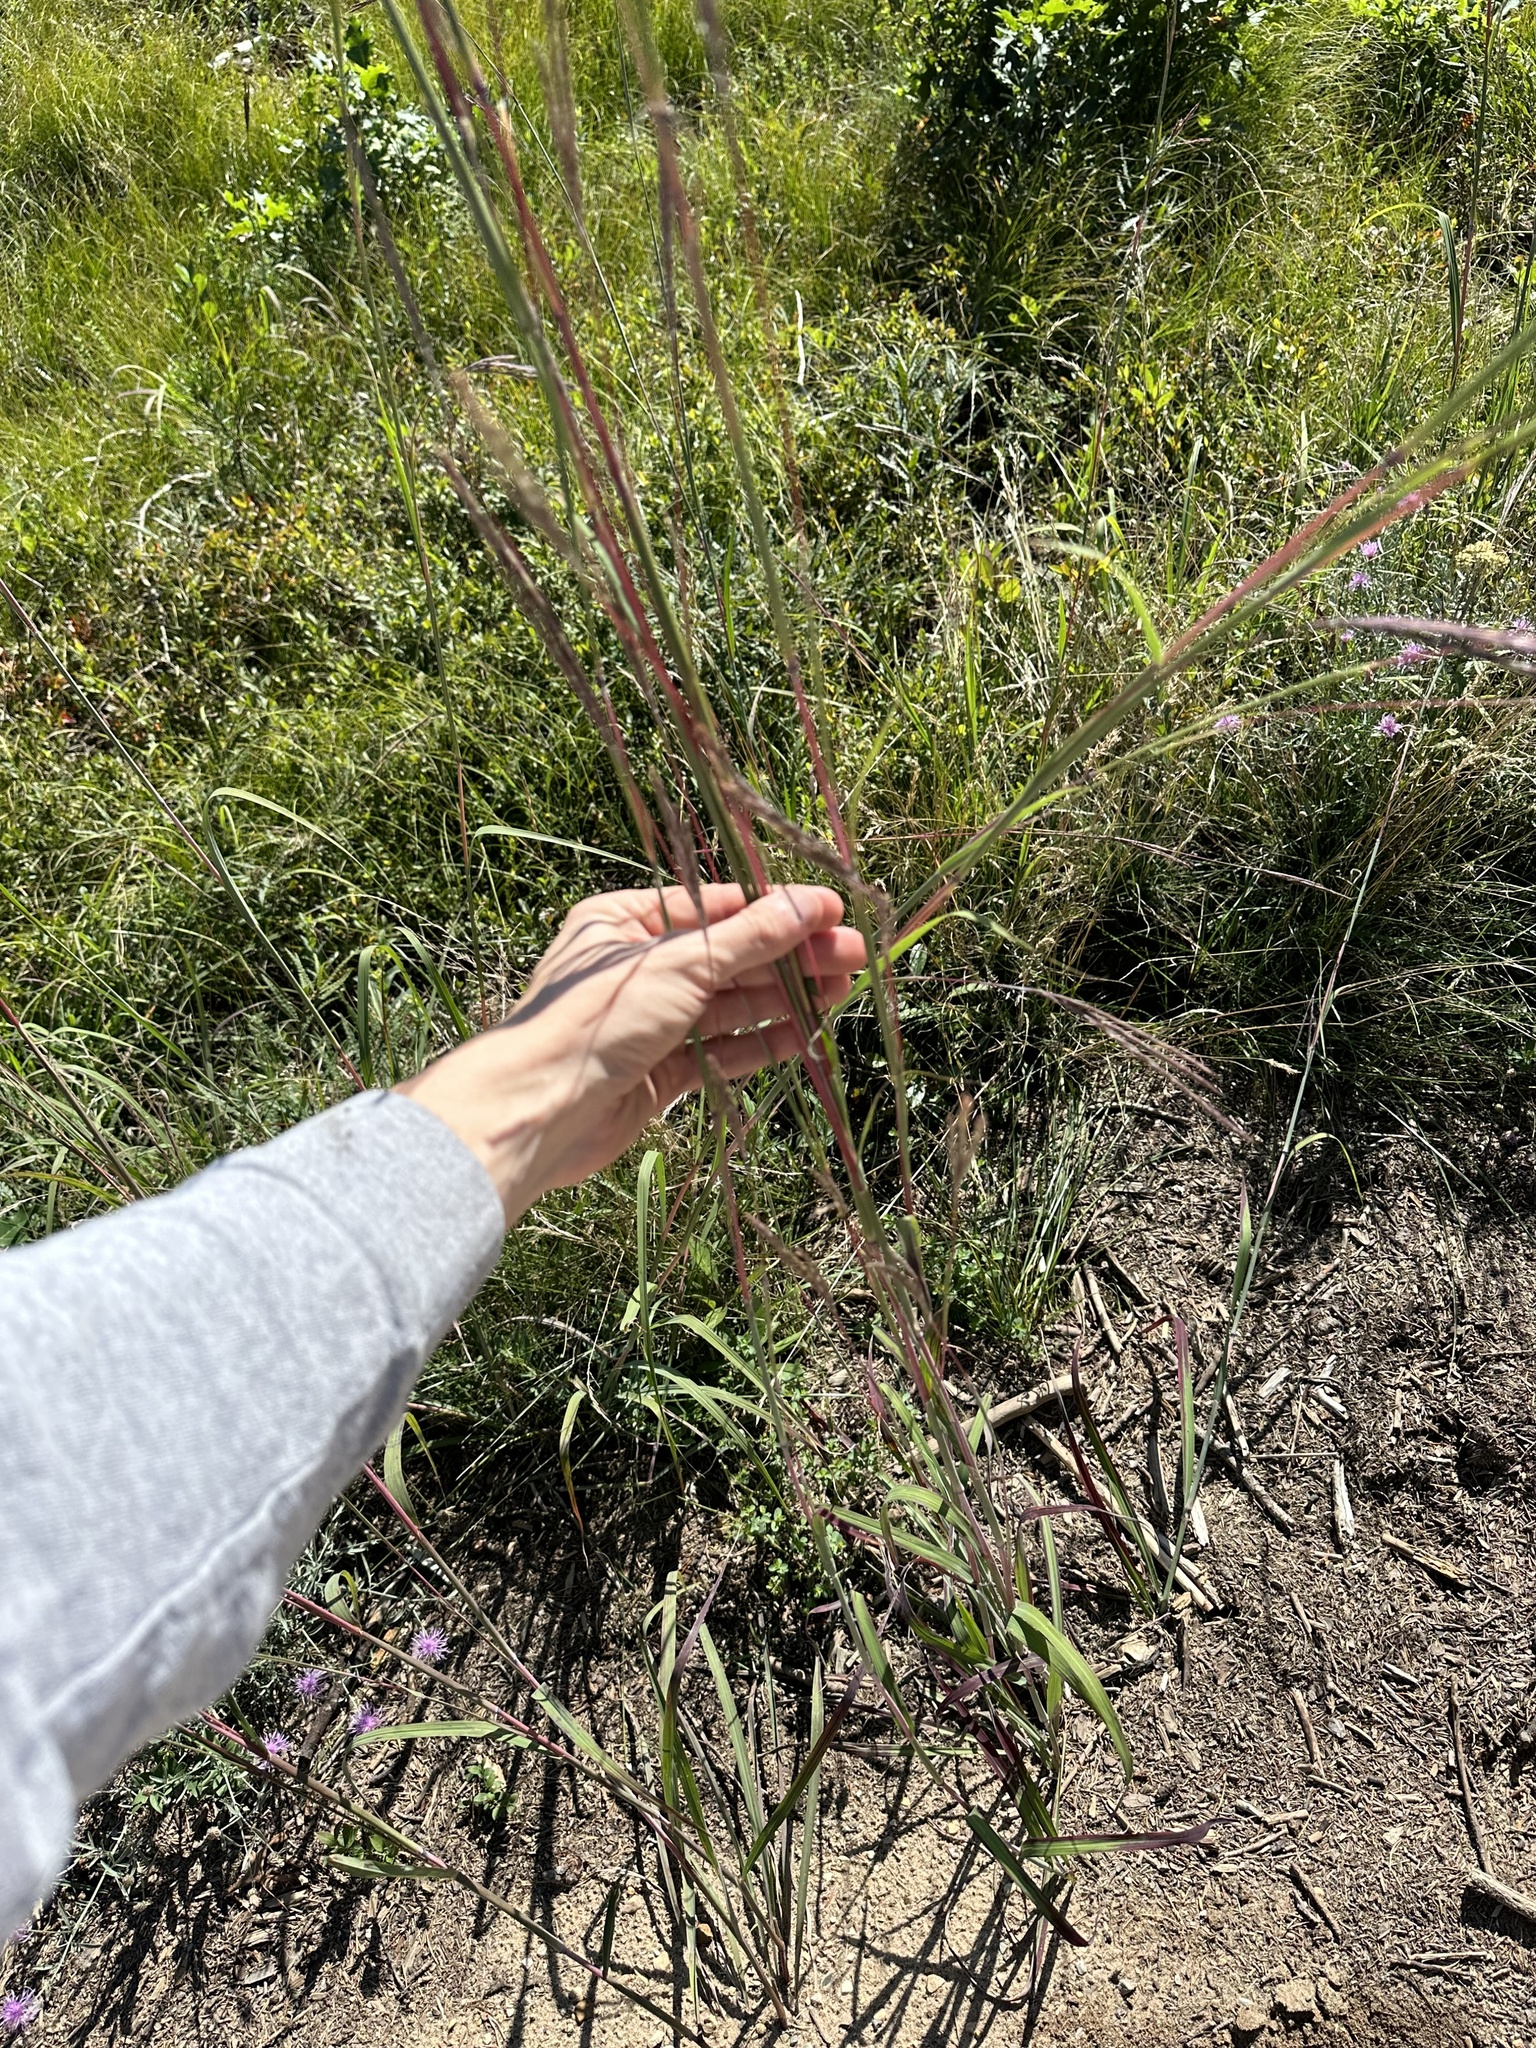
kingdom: Plantae
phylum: Tracheophyta
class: Liliopsida
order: Poales
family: Poaceae
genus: Andropogon
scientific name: Andropogon gerardi
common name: Big bluestem
